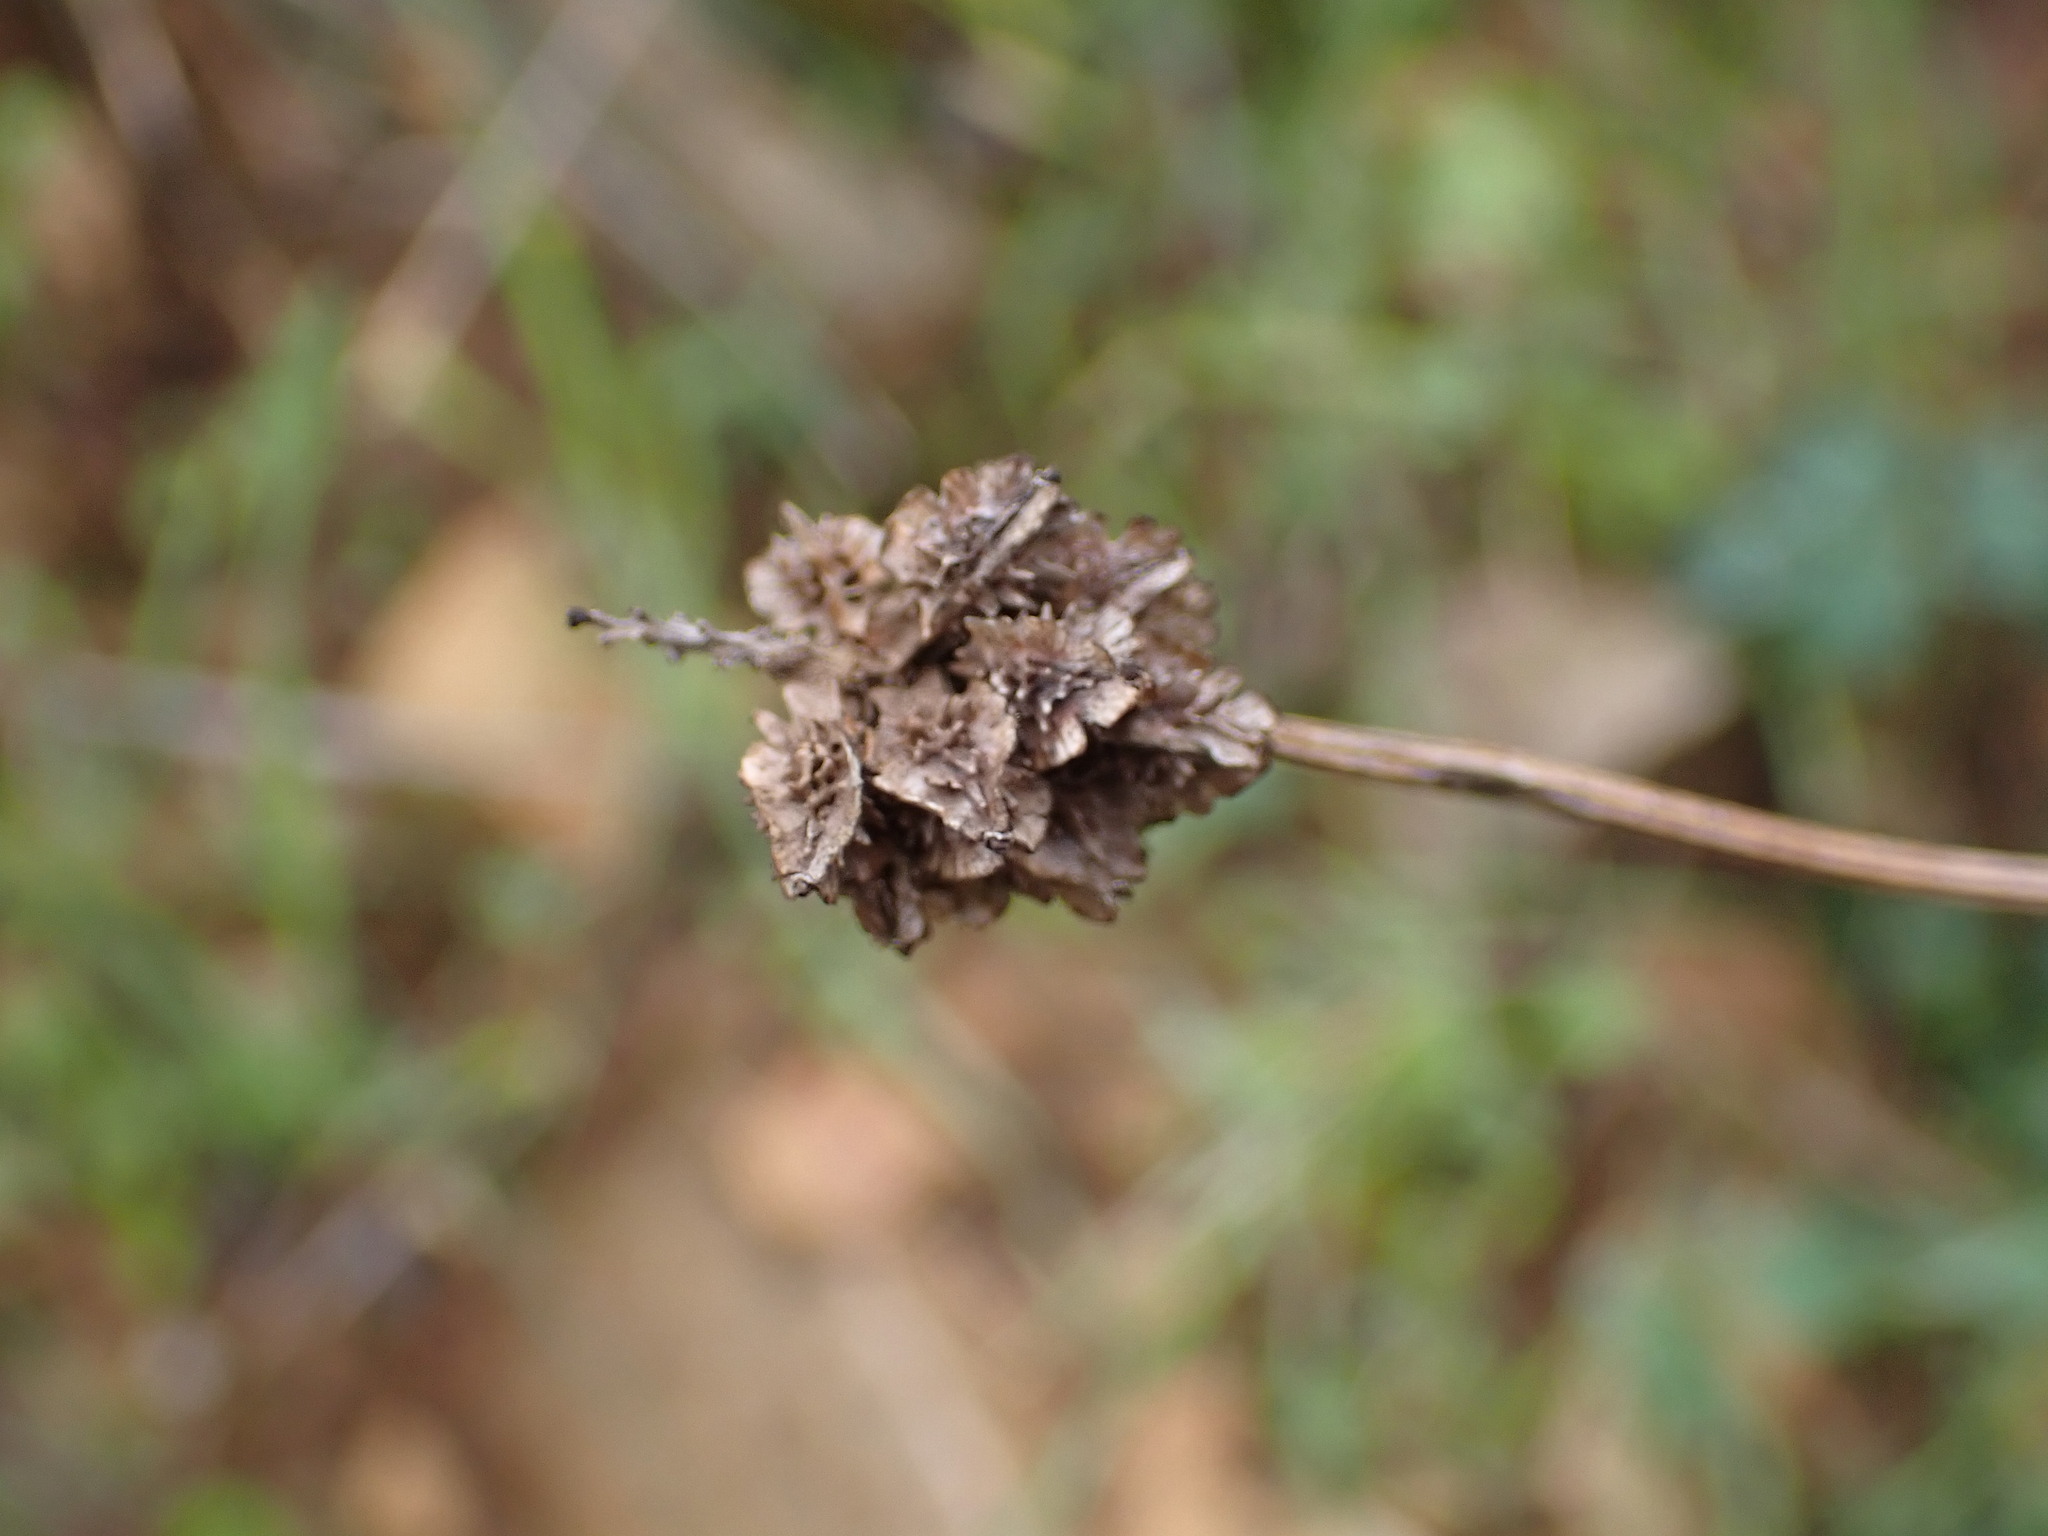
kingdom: Plantae
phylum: Tracheophyta
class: Magnoliopsida
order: Rosales
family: Rosaceae
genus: Poterium
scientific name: Poterium sanguisorba
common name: Salad burnet
